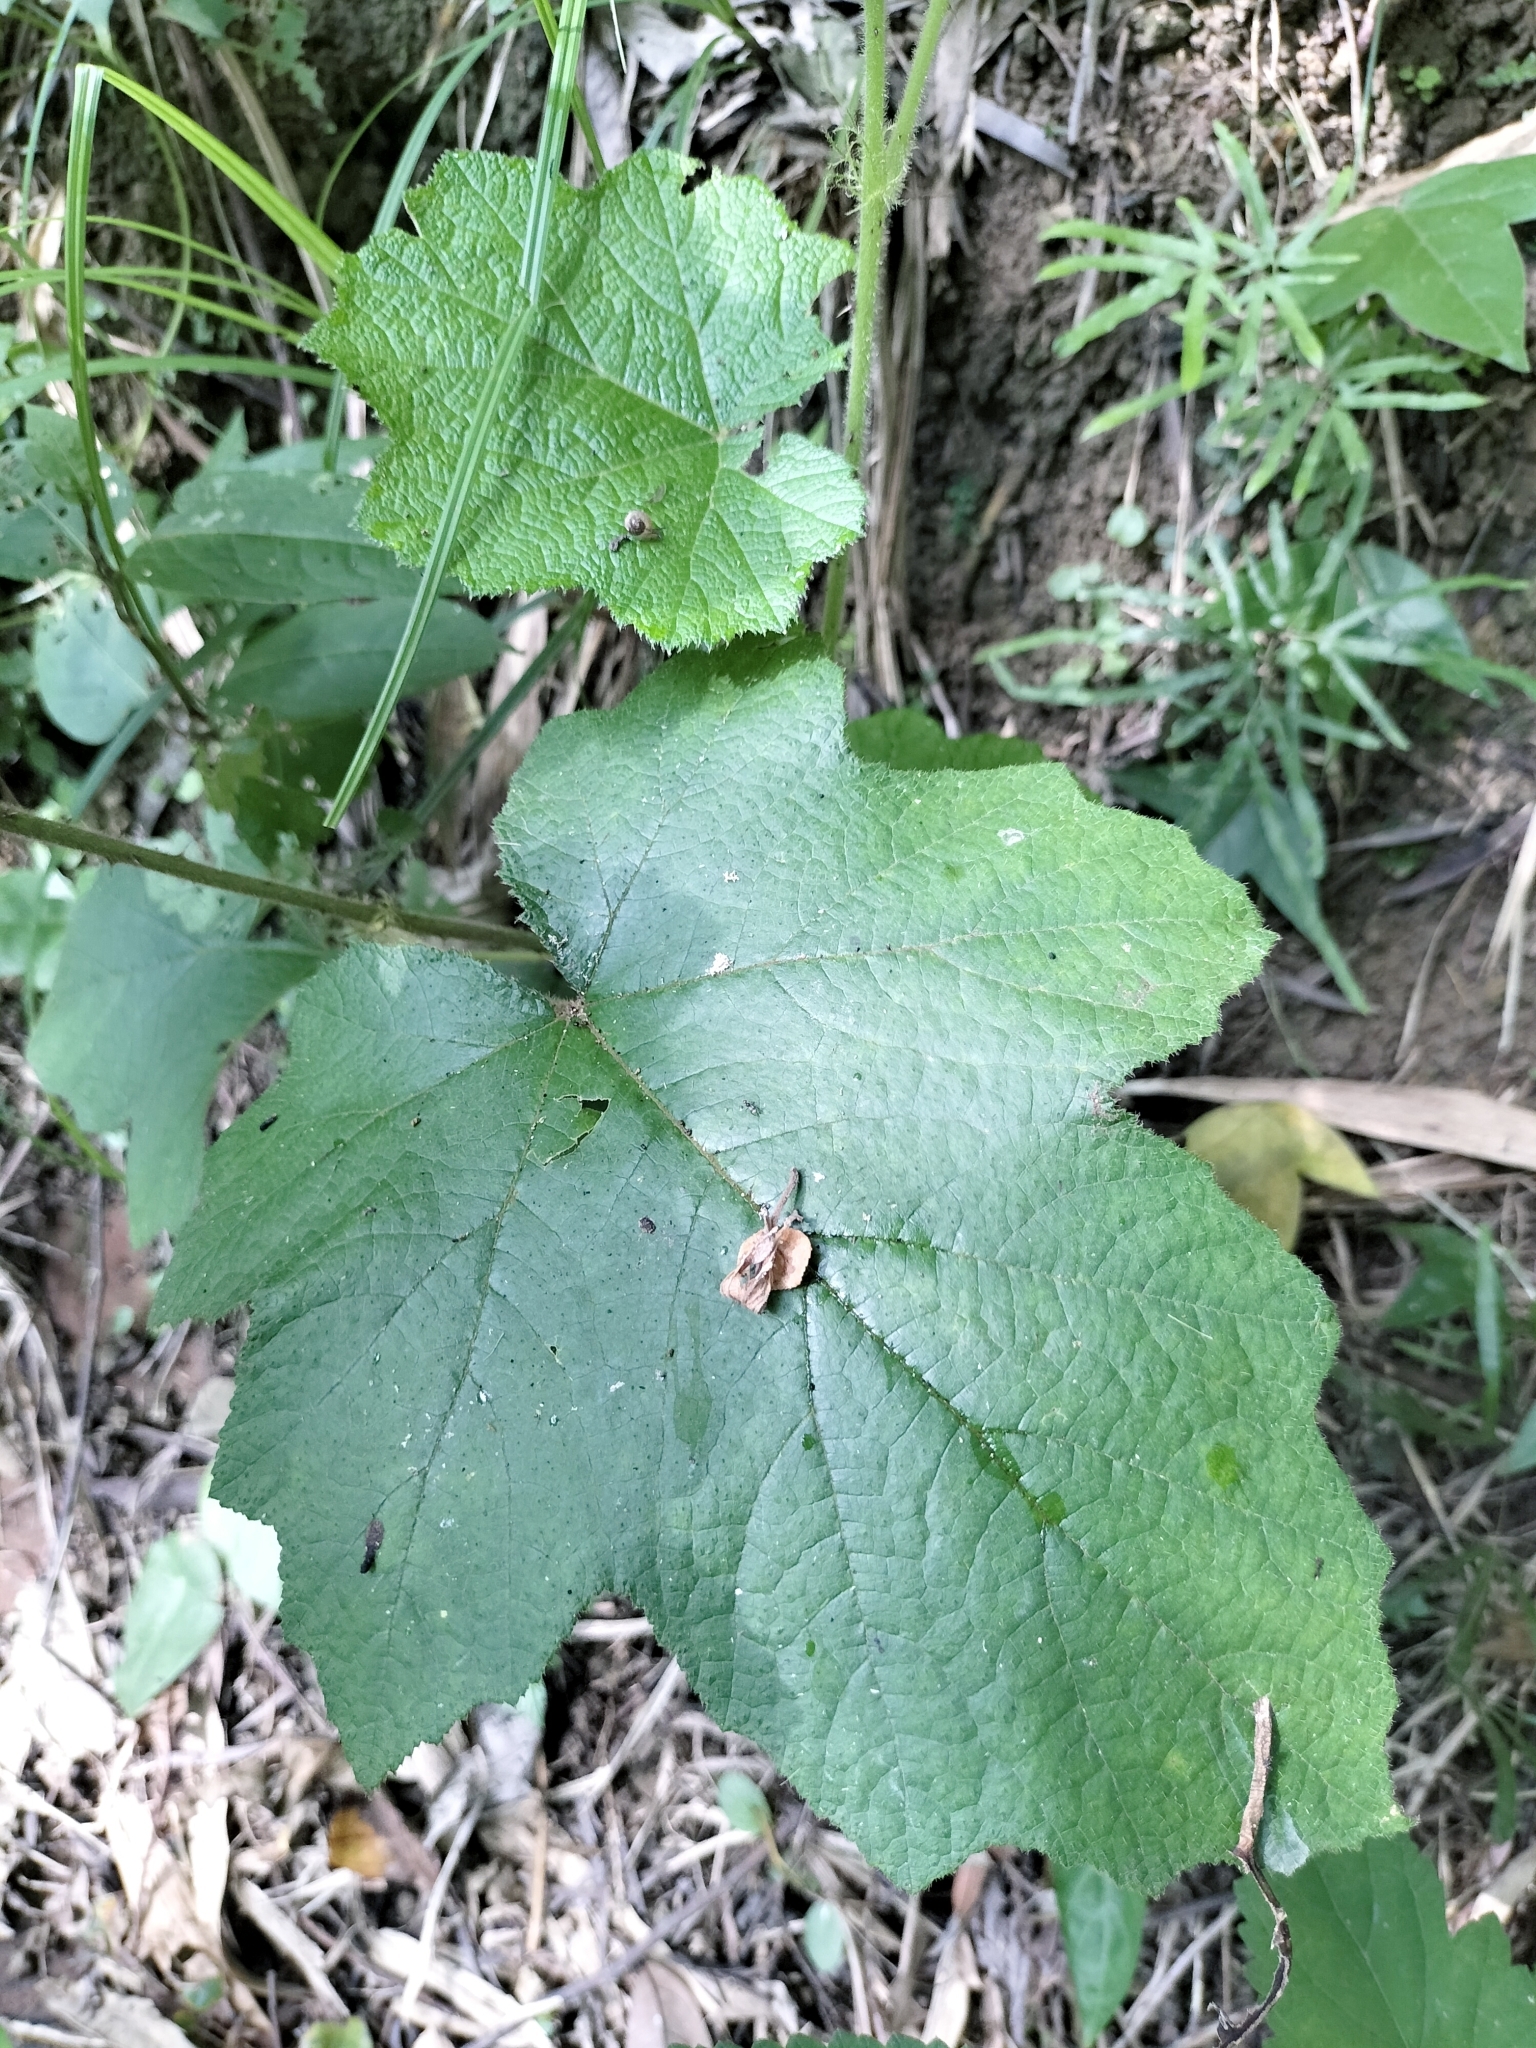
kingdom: Plantae
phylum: Tracheophyta
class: Magnoliopsida
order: Rosales
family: Rosaceae
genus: Rubus
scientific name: Rubus alceifolius
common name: Giant bramble
